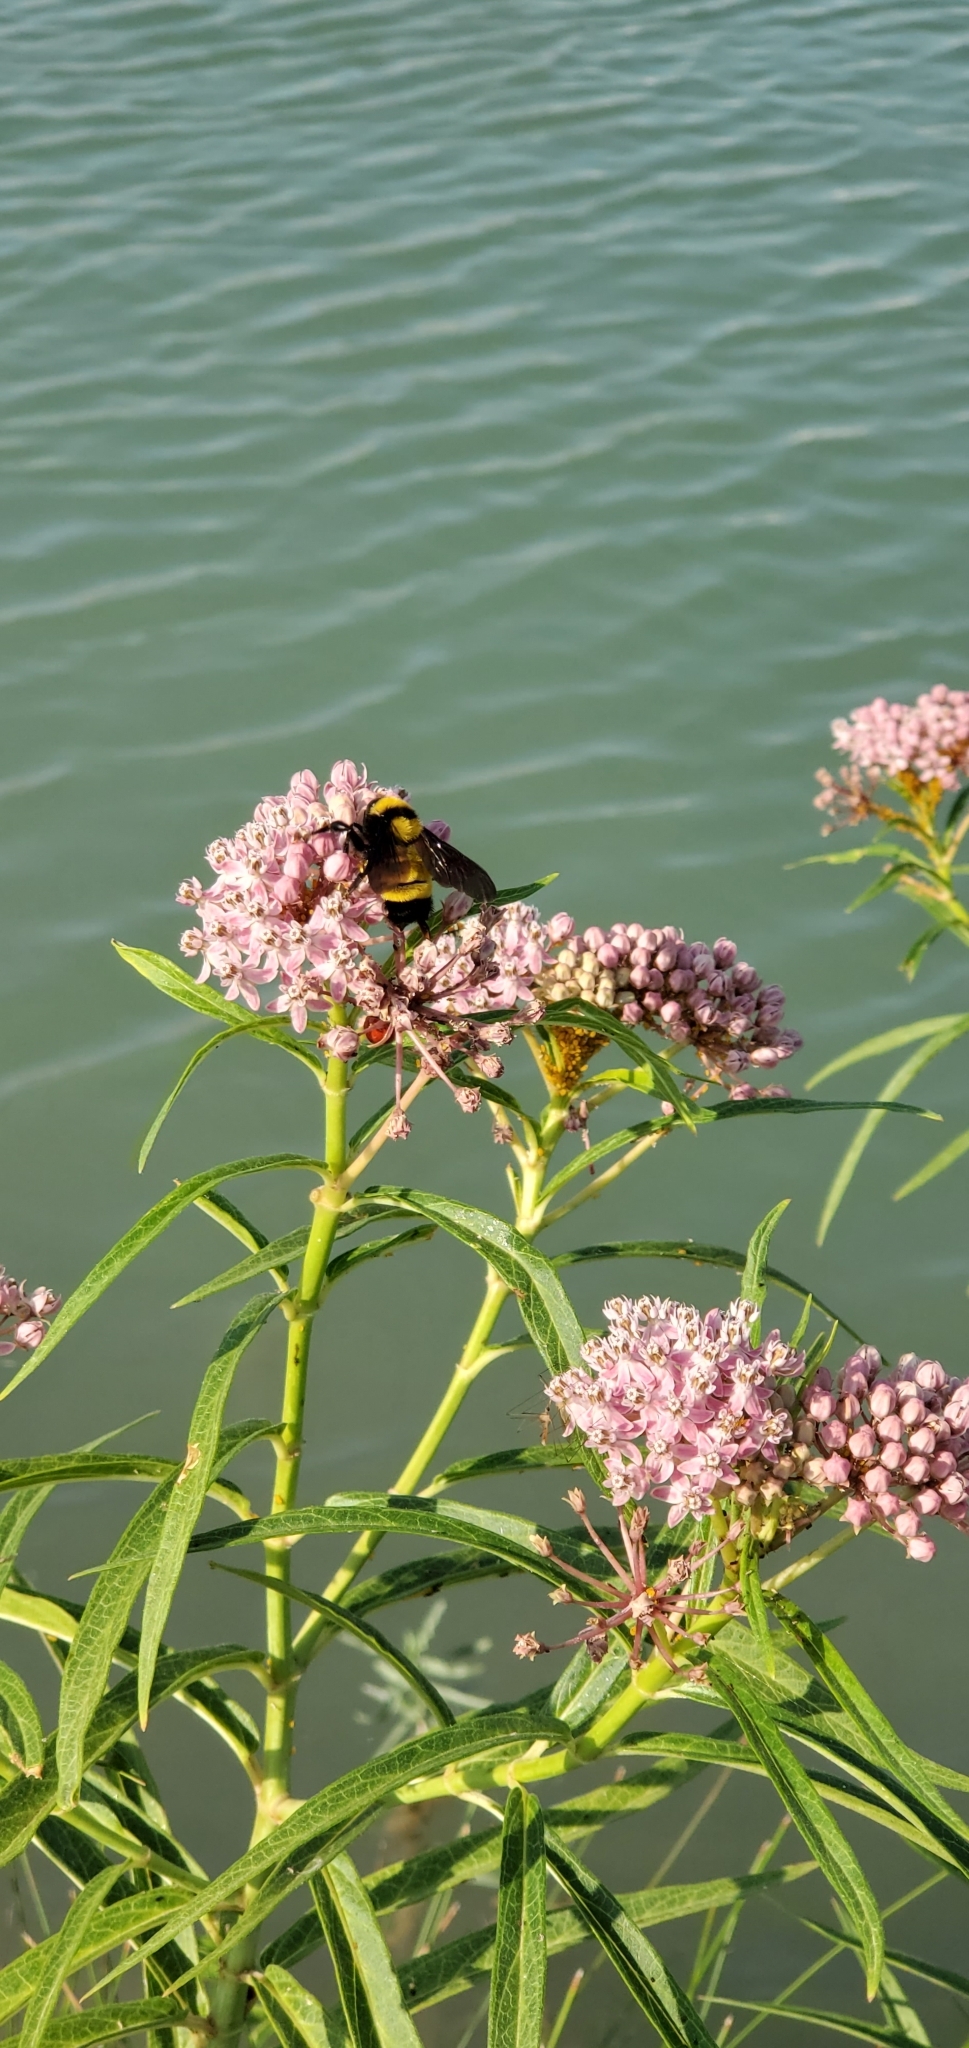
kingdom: Plantae
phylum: Tracheophyta
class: Magnoliopsida
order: Gentianales
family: Apocynaceae
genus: Asclepias
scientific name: Asclepias incarnata
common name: Swamp milkweed
